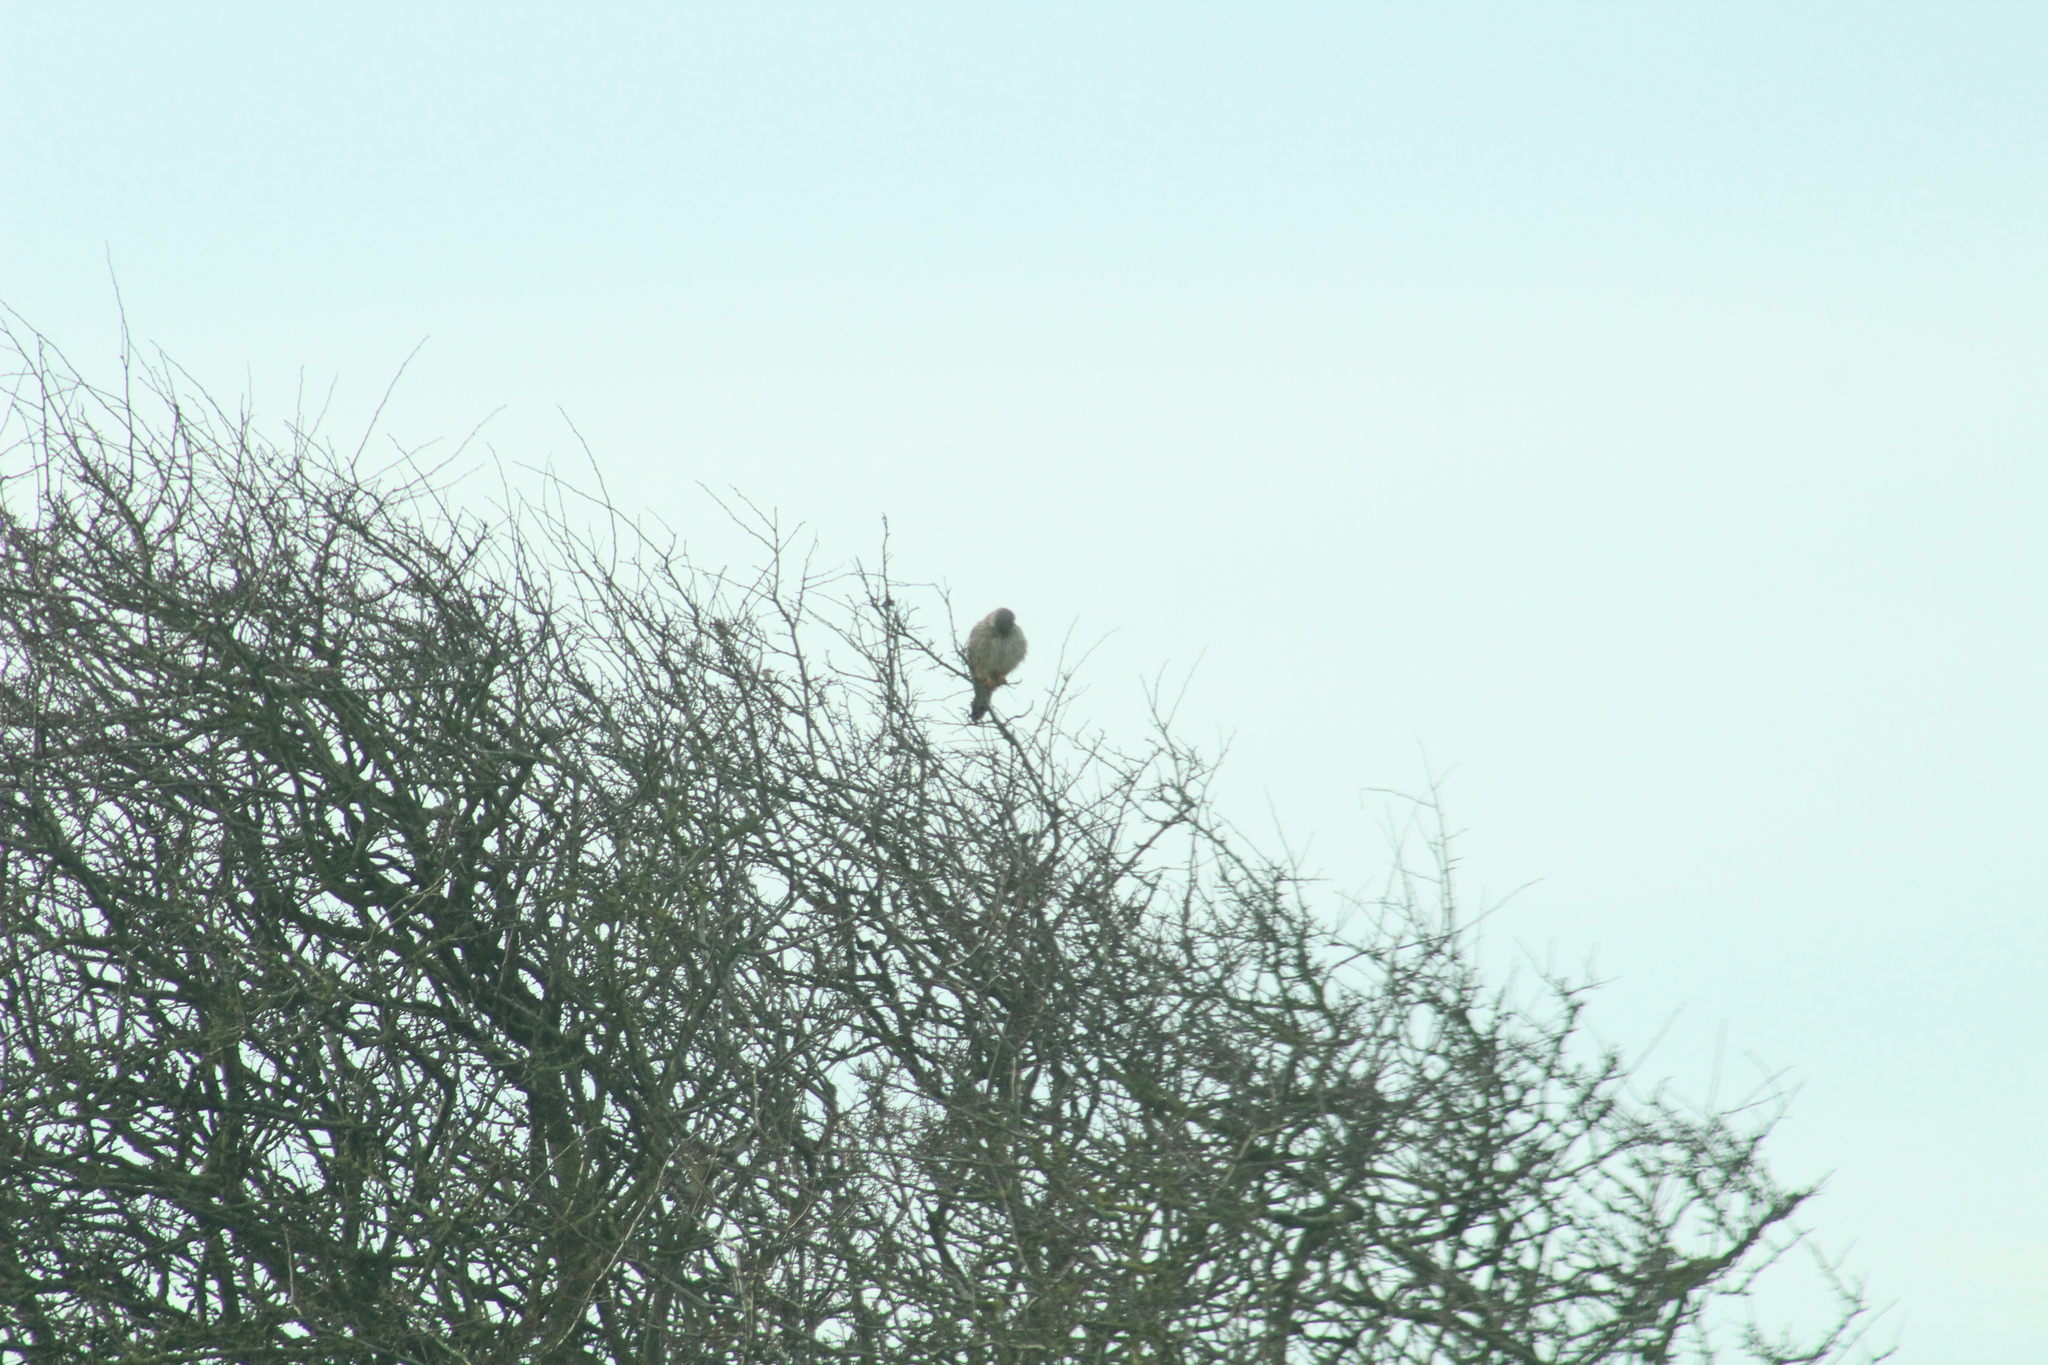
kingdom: Animalia
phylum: Chordata
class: Aves
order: Falconiformes
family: Falconidae
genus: Falco
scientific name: Falco tinnunculus
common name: Common kestrel
